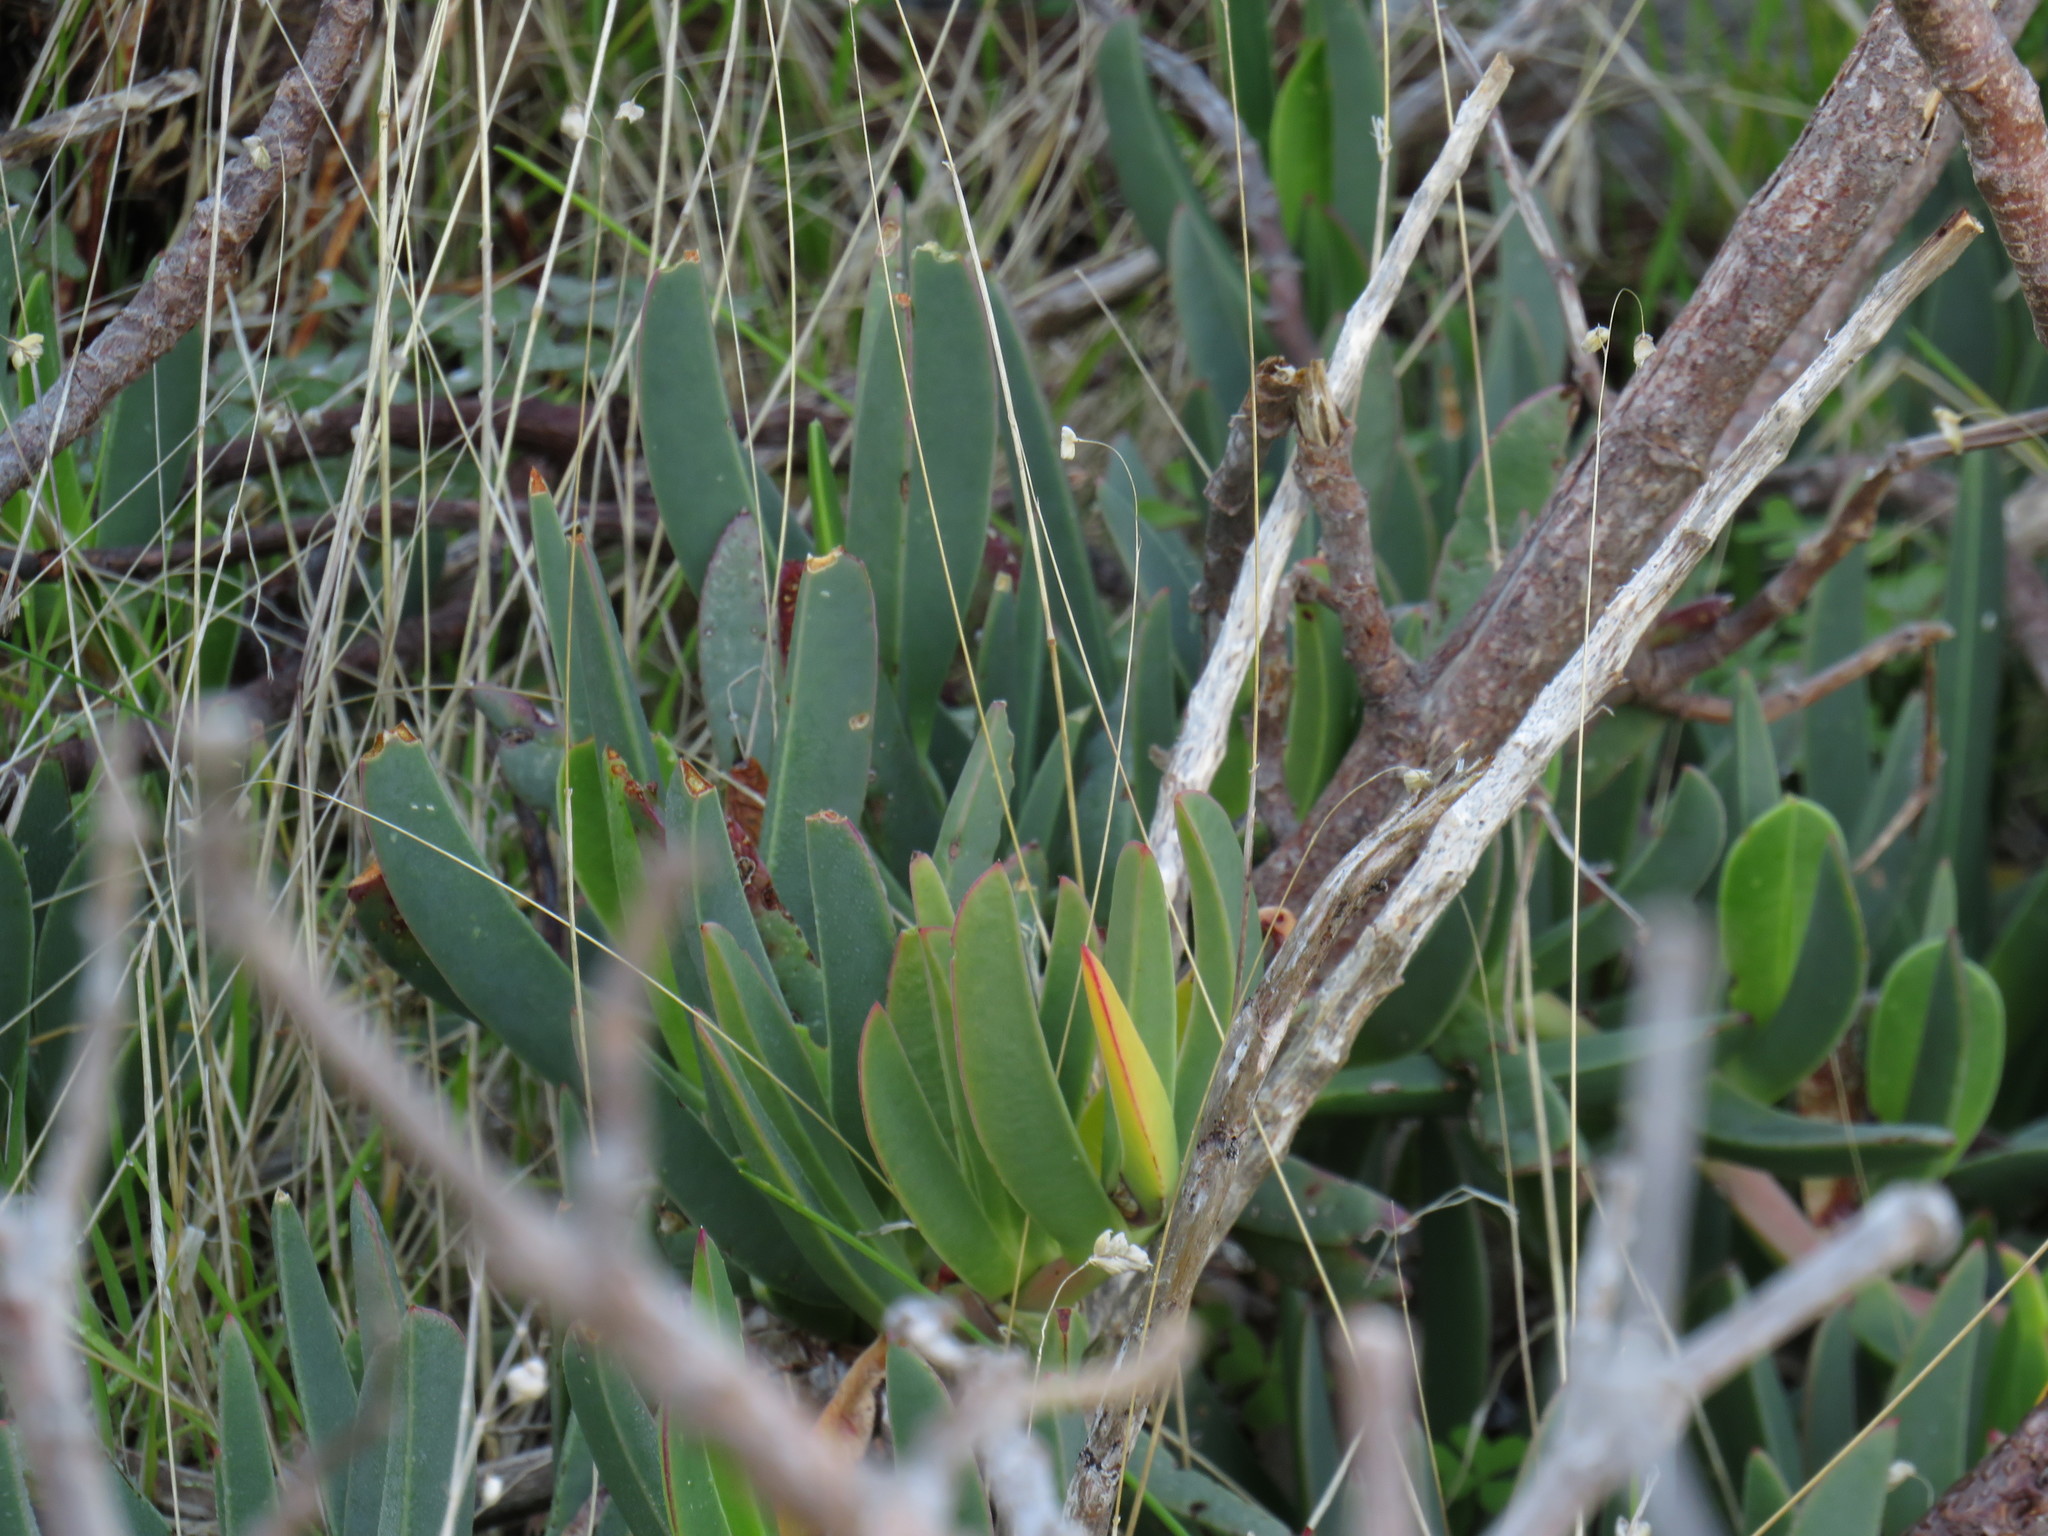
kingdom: Plantae
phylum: Tracheophyta
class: Magnoliopsida
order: Caryophyllales
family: Aizoaceae
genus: Carpobrotus
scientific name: Carpobrotus acinaciformis
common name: Sally-my-handsome
